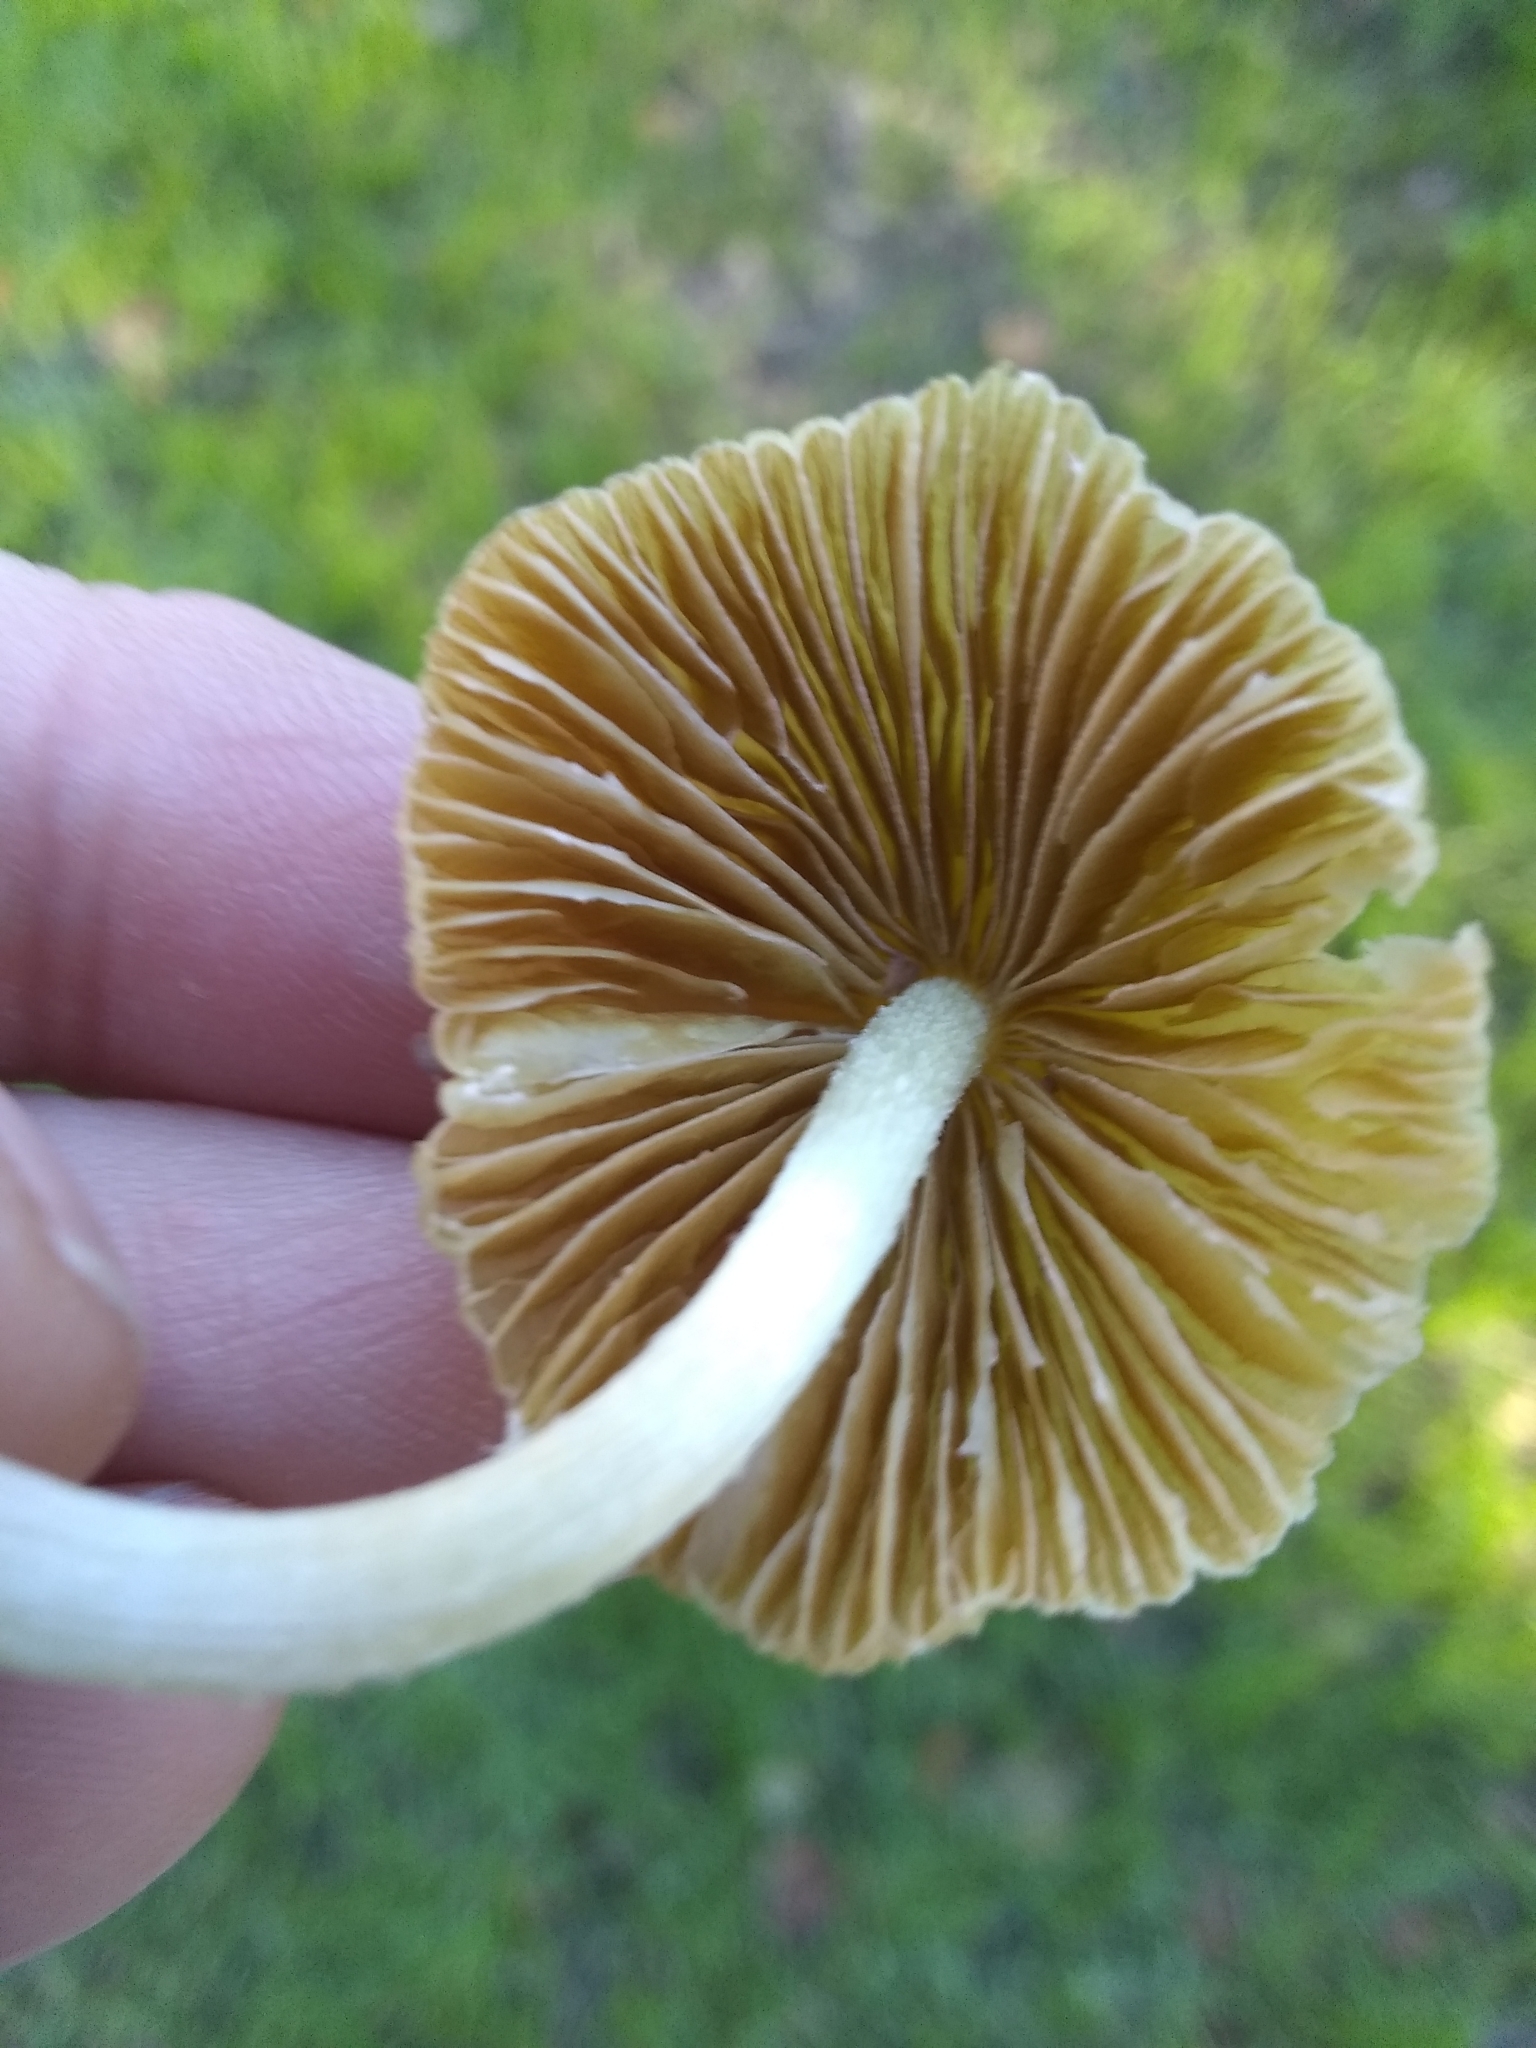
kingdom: Fungi
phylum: Basidiomycota
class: Agaricomycetes
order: Agaricales
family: Bolbitiaceae
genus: Bolbitius
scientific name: Bolbitius titubans
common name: Yellow fieldcap
